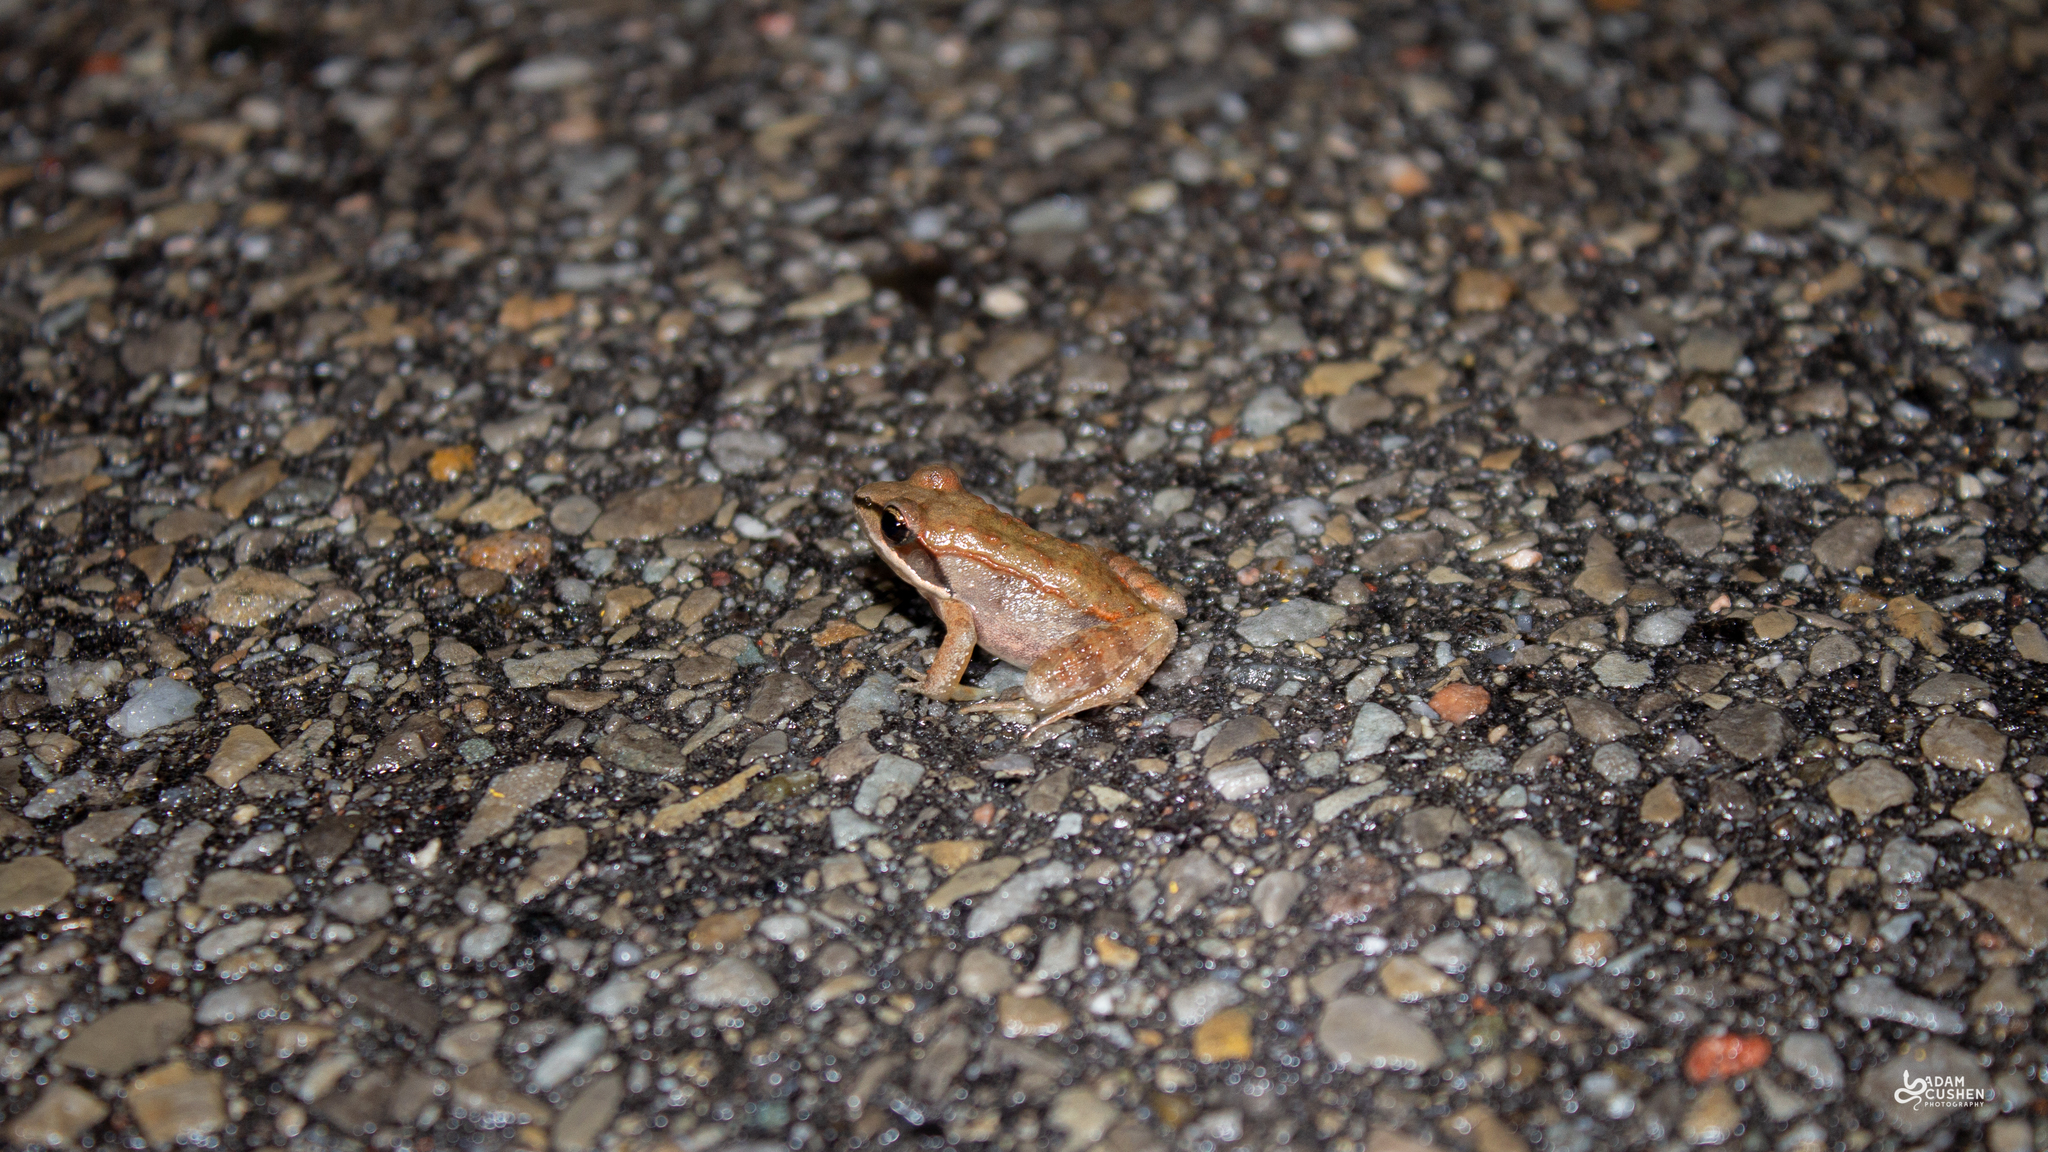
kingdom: Animalia
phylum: Chordata
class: Amphibia
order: Anura
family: Ranidae
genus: Lithobates
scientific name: Lithobates sylvaticus
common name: Wood frog
